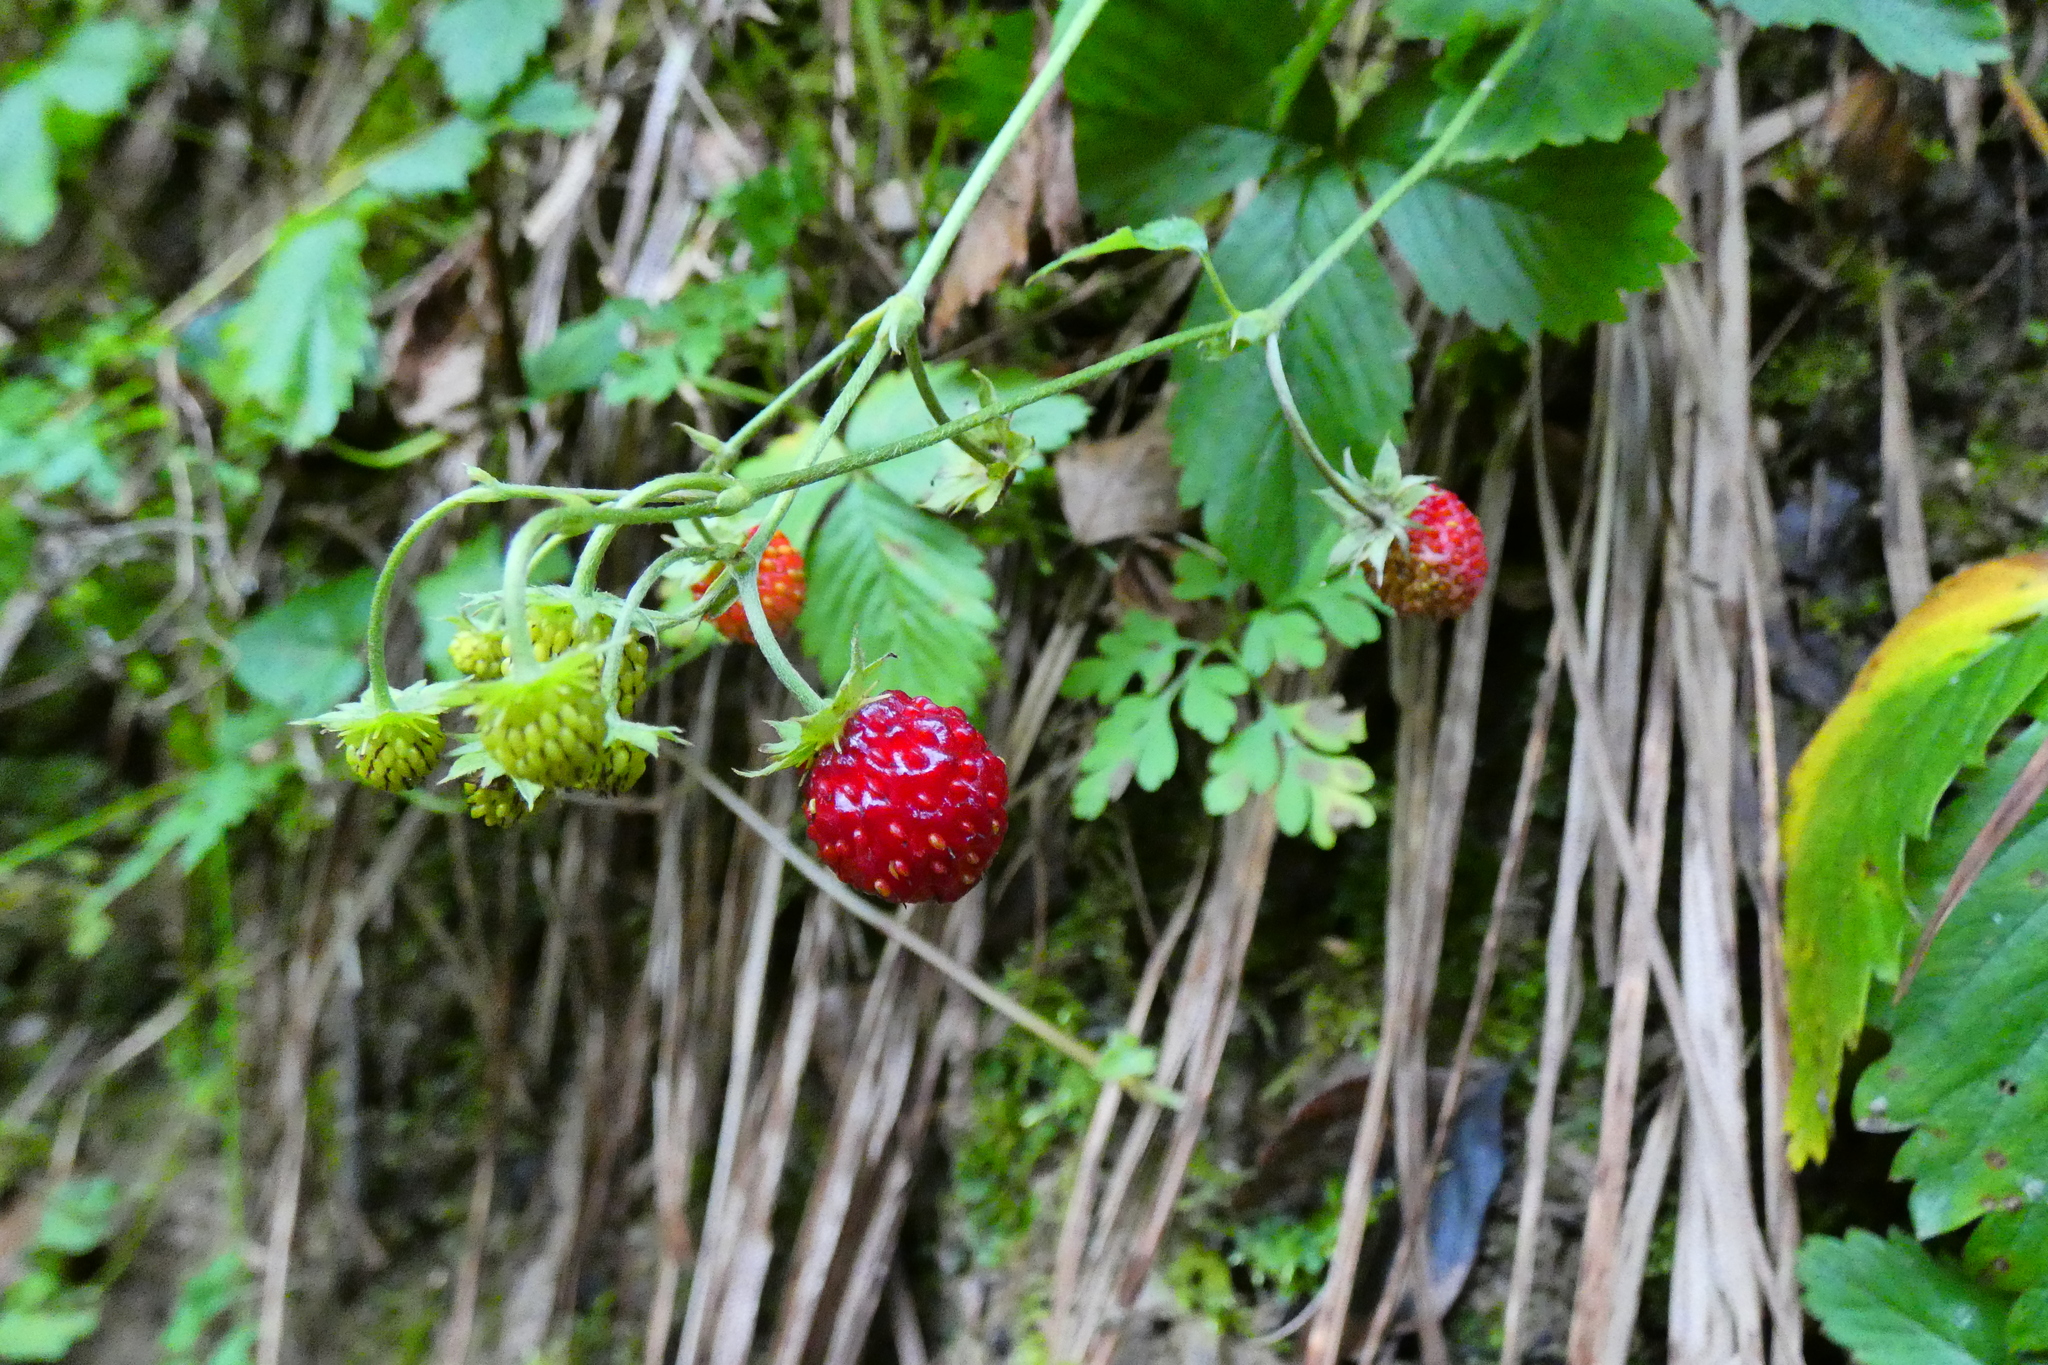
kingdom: Plantae
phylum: Tracheophyta
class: Magnoliopsida
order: Rosales
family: Rosaceae
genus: Fragaria
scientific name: Fragaria vesca
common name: Wild strawberry
